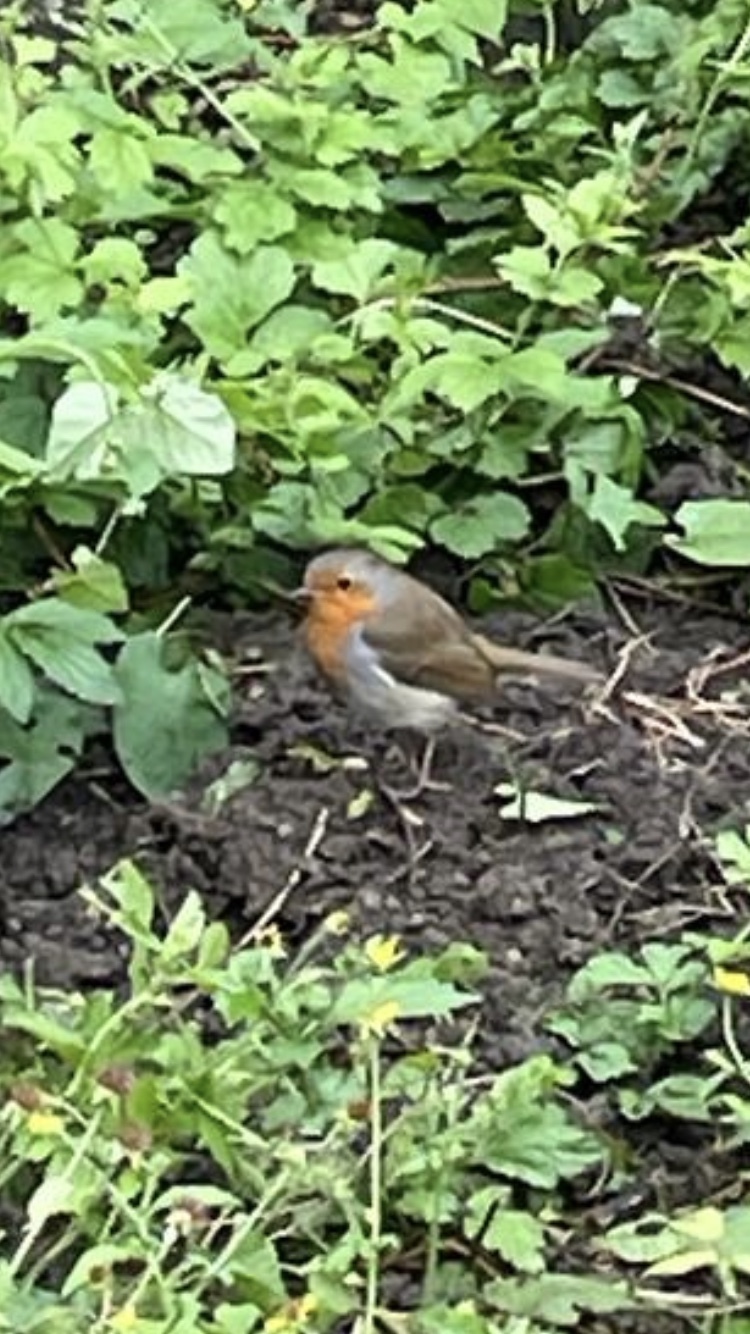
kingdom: Animalia
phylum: Chordata
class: Aves
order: Passeriformes
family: Muscicapidae
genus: Erithacus
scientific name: Erithacus rubecula
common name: European robin
